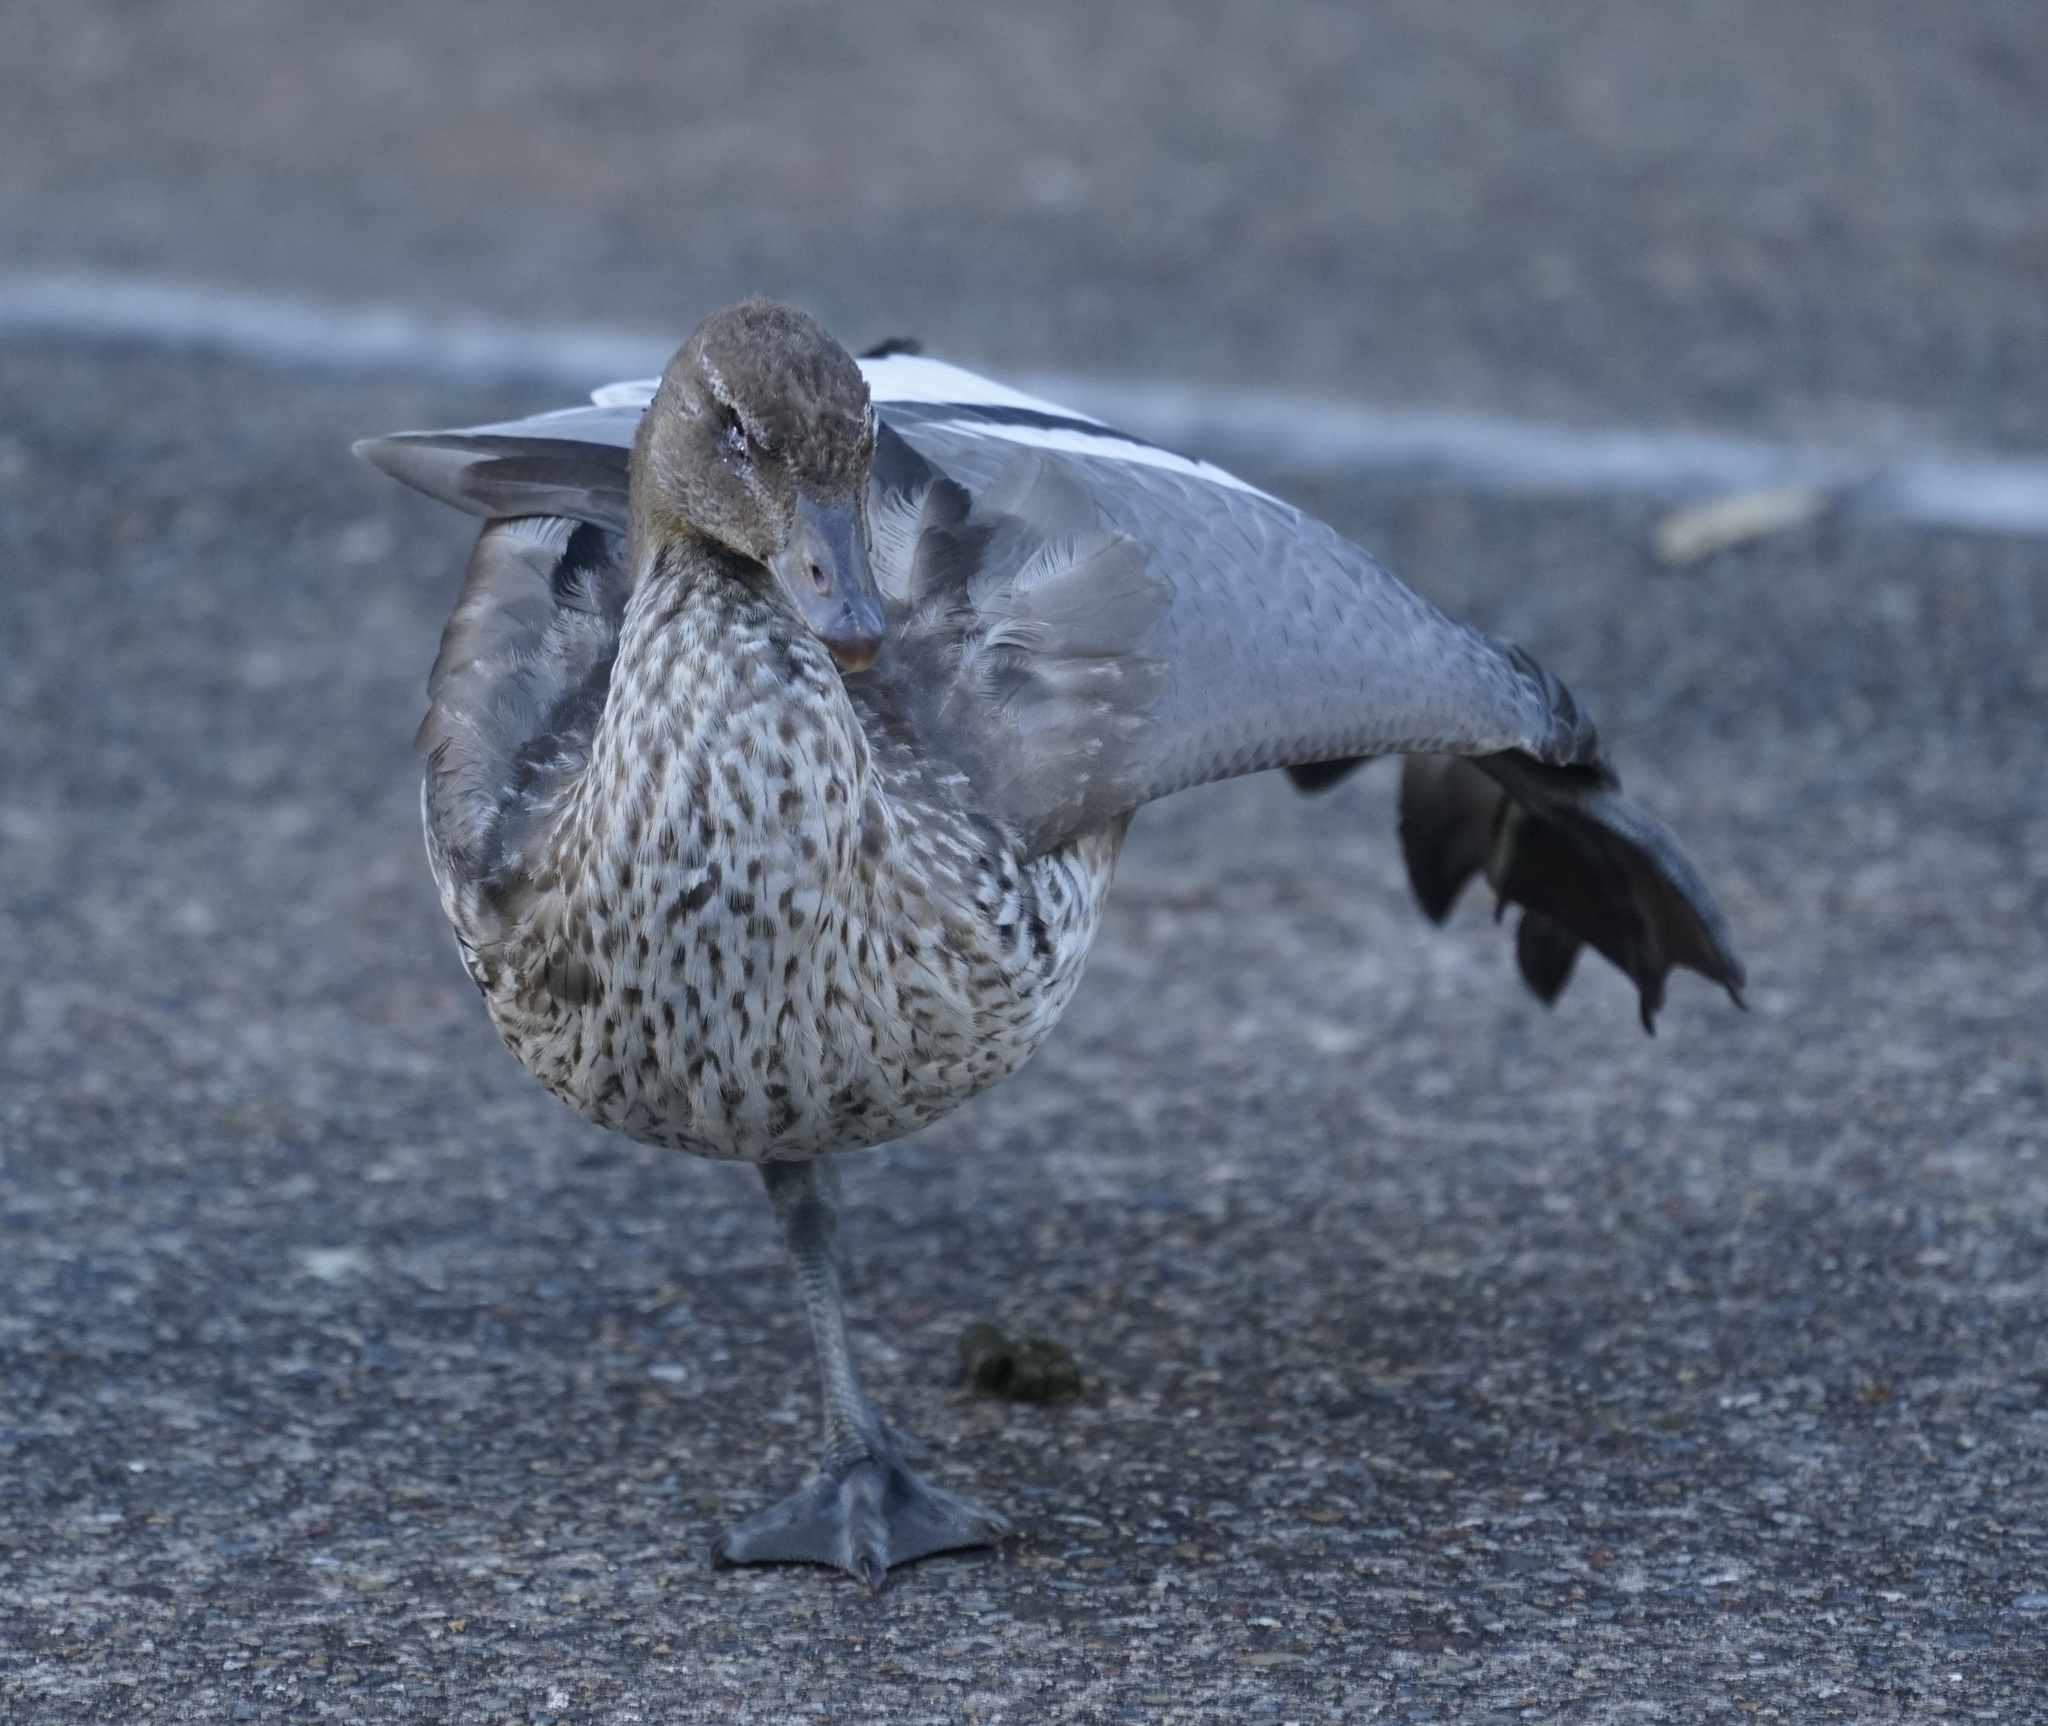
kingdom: Animalia
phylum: Chordata
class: Aves
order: Anseriformes
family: Anatidae
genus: Chenonetta
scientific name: Chenonetta jubata
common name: Maned duck
